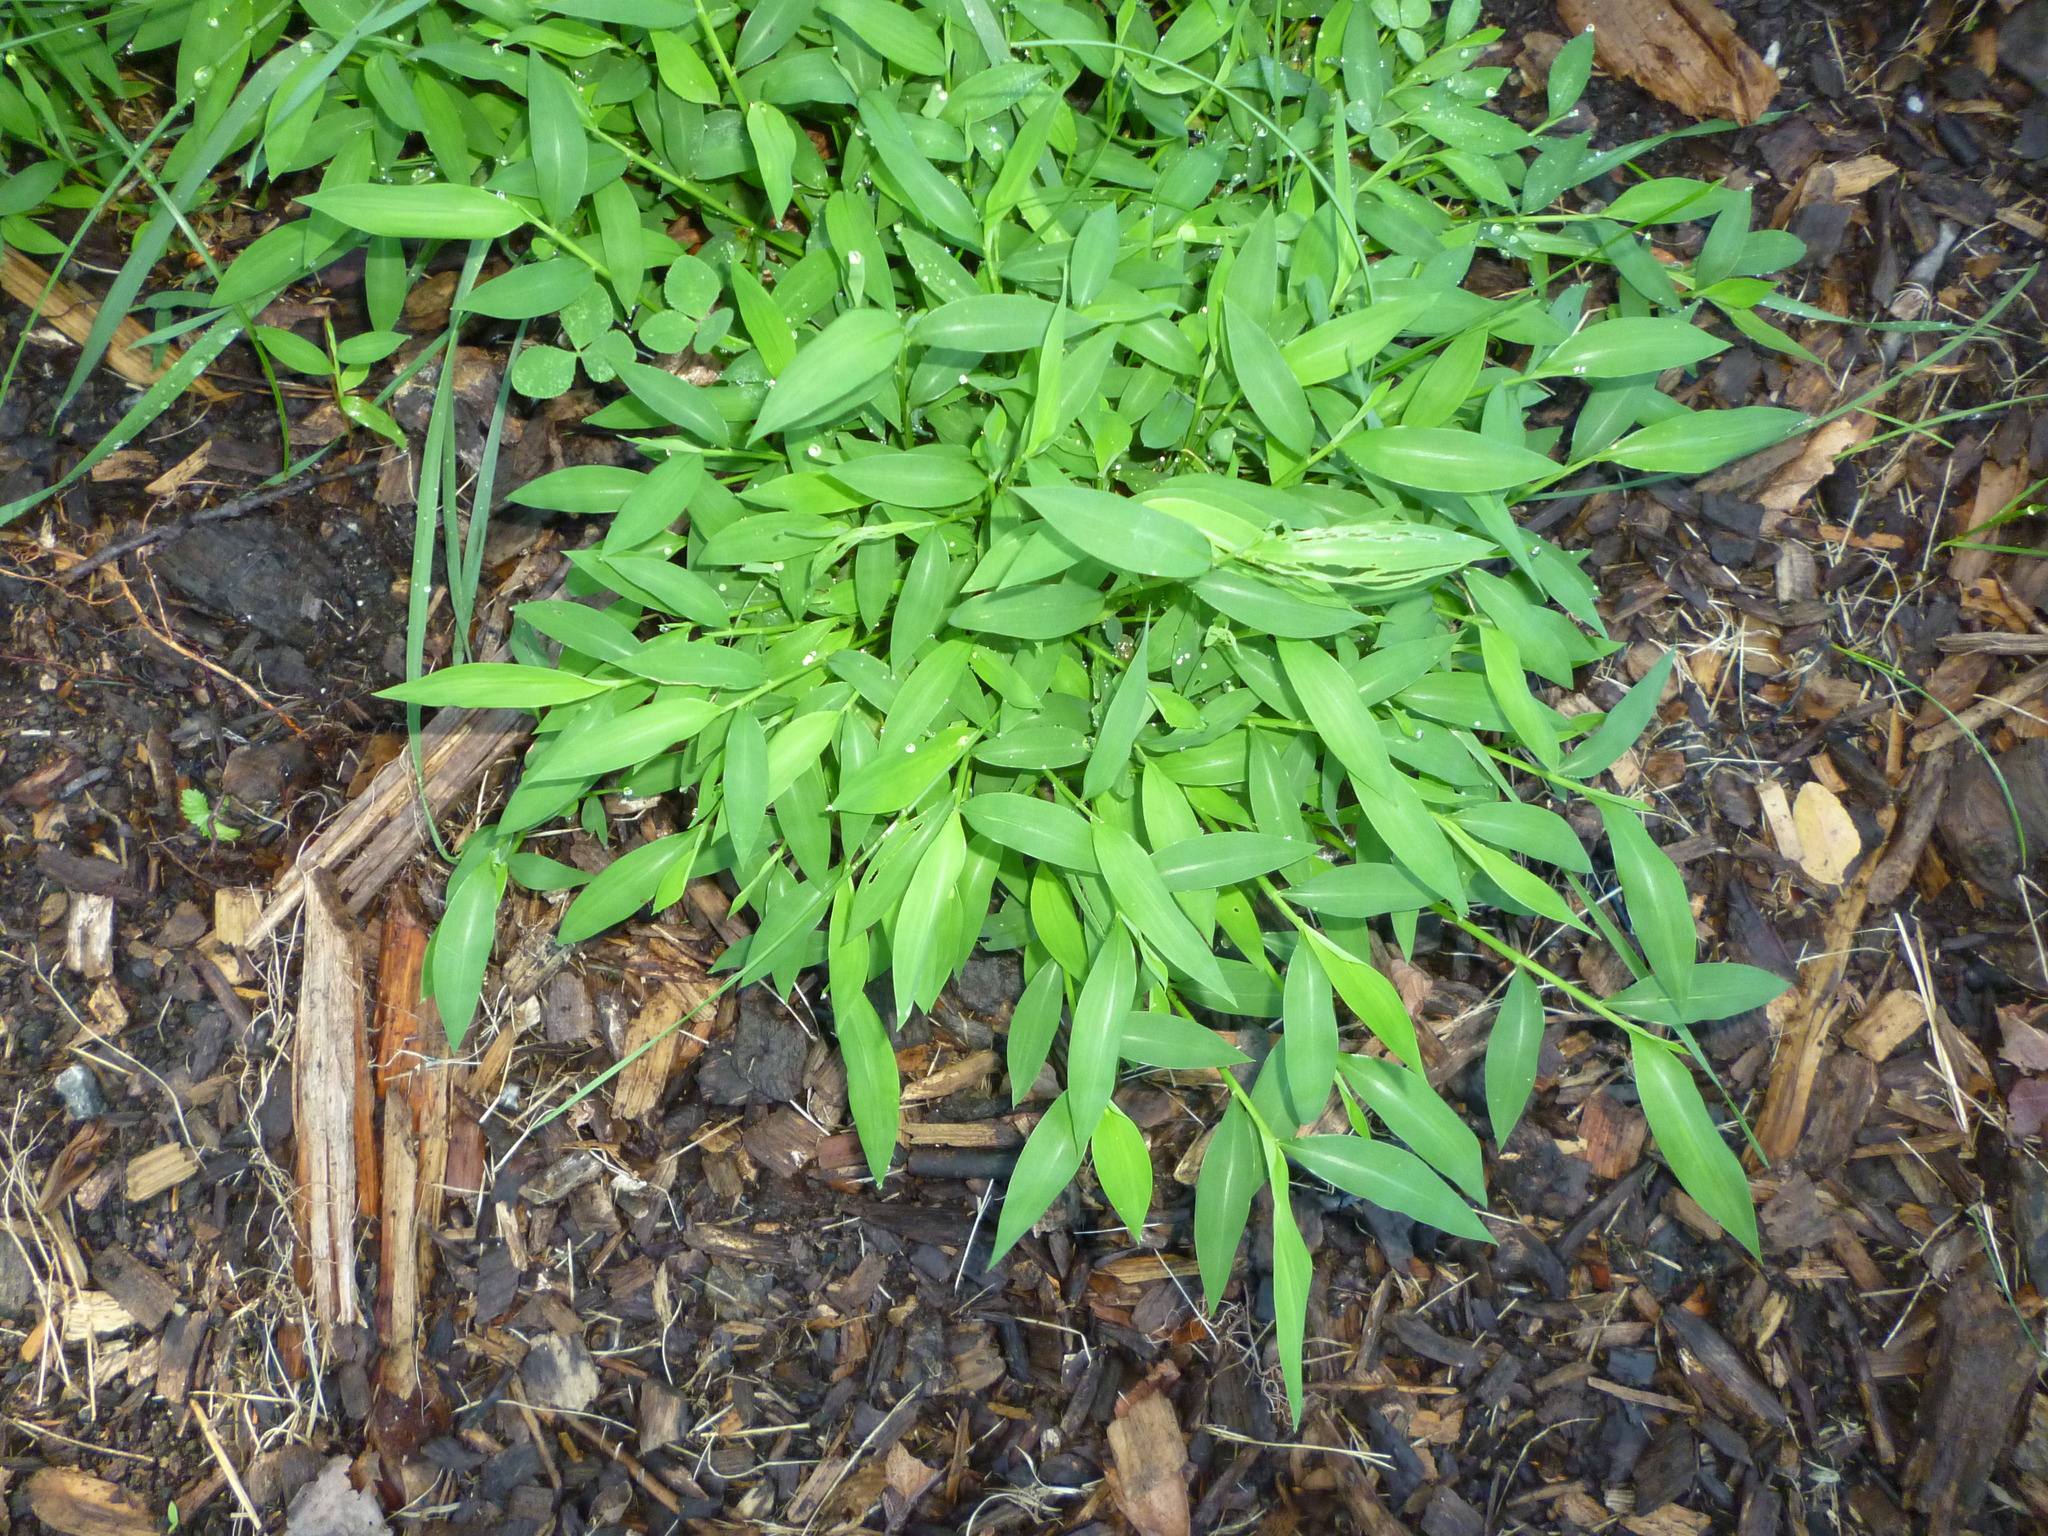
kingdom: Plantae
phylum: Tracheophyta
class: Liliopsida
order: Poales
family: Poaceae
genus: Microstegium
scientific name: Microstegium vimineum
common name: Japanese stiltgrass
